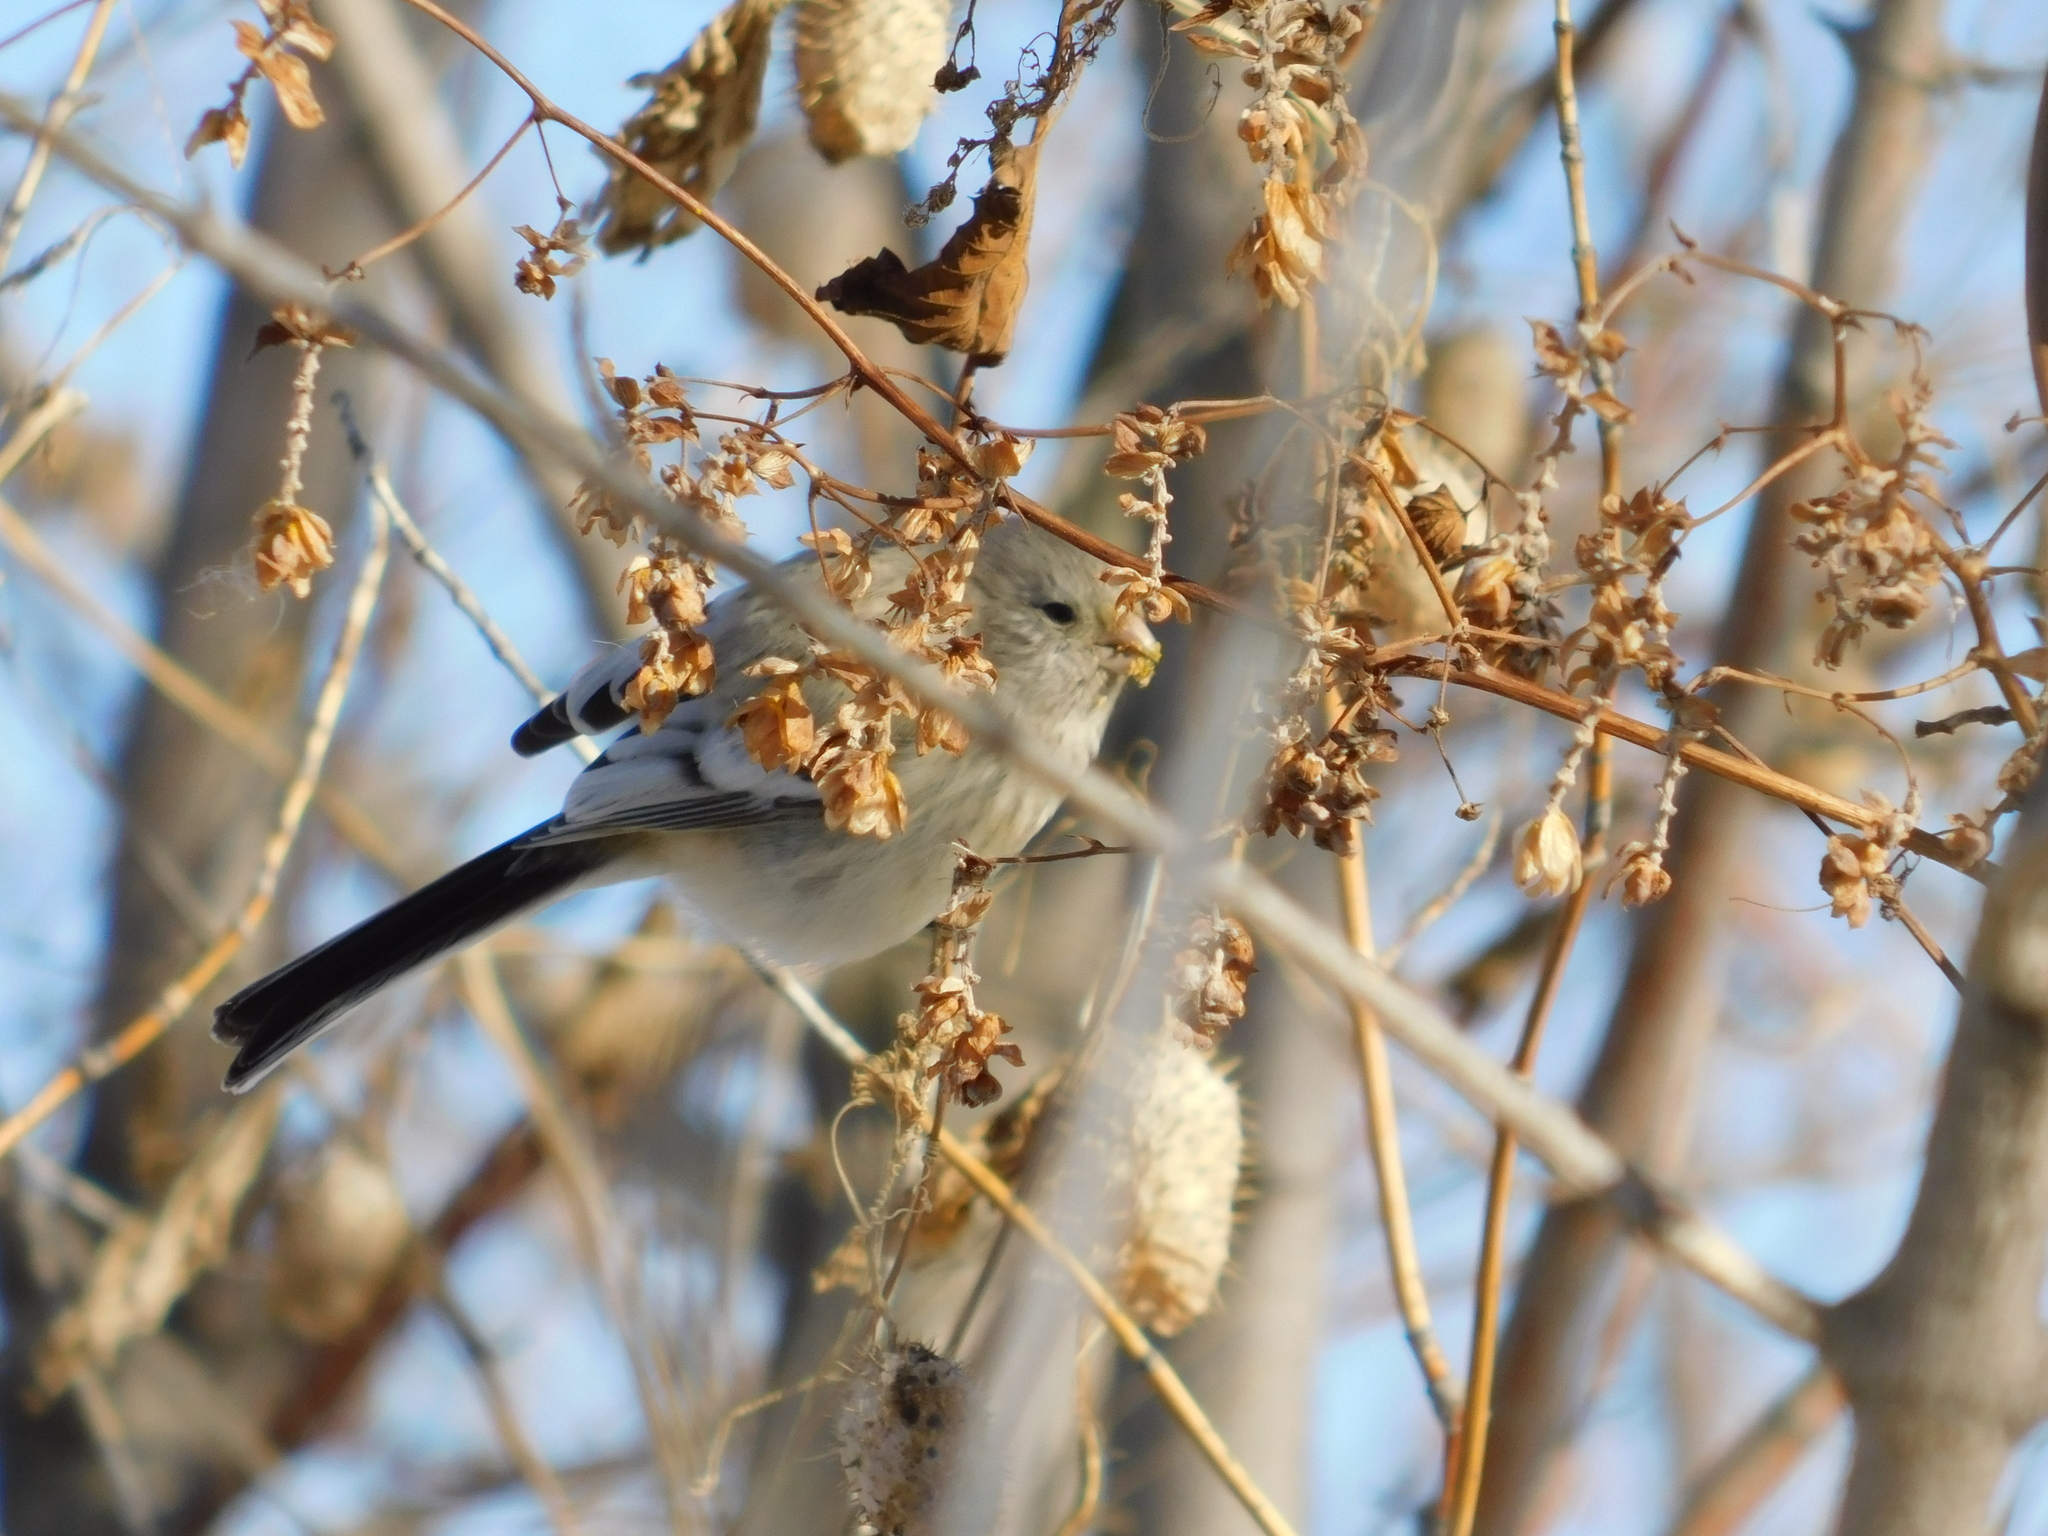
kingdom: Animalia
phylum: Chordata
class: Aves
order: Passeriformes
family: Fringillidae
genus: Carpodacus
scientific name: Carpodacus sibiricus
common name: Long-tailed rosefinch
